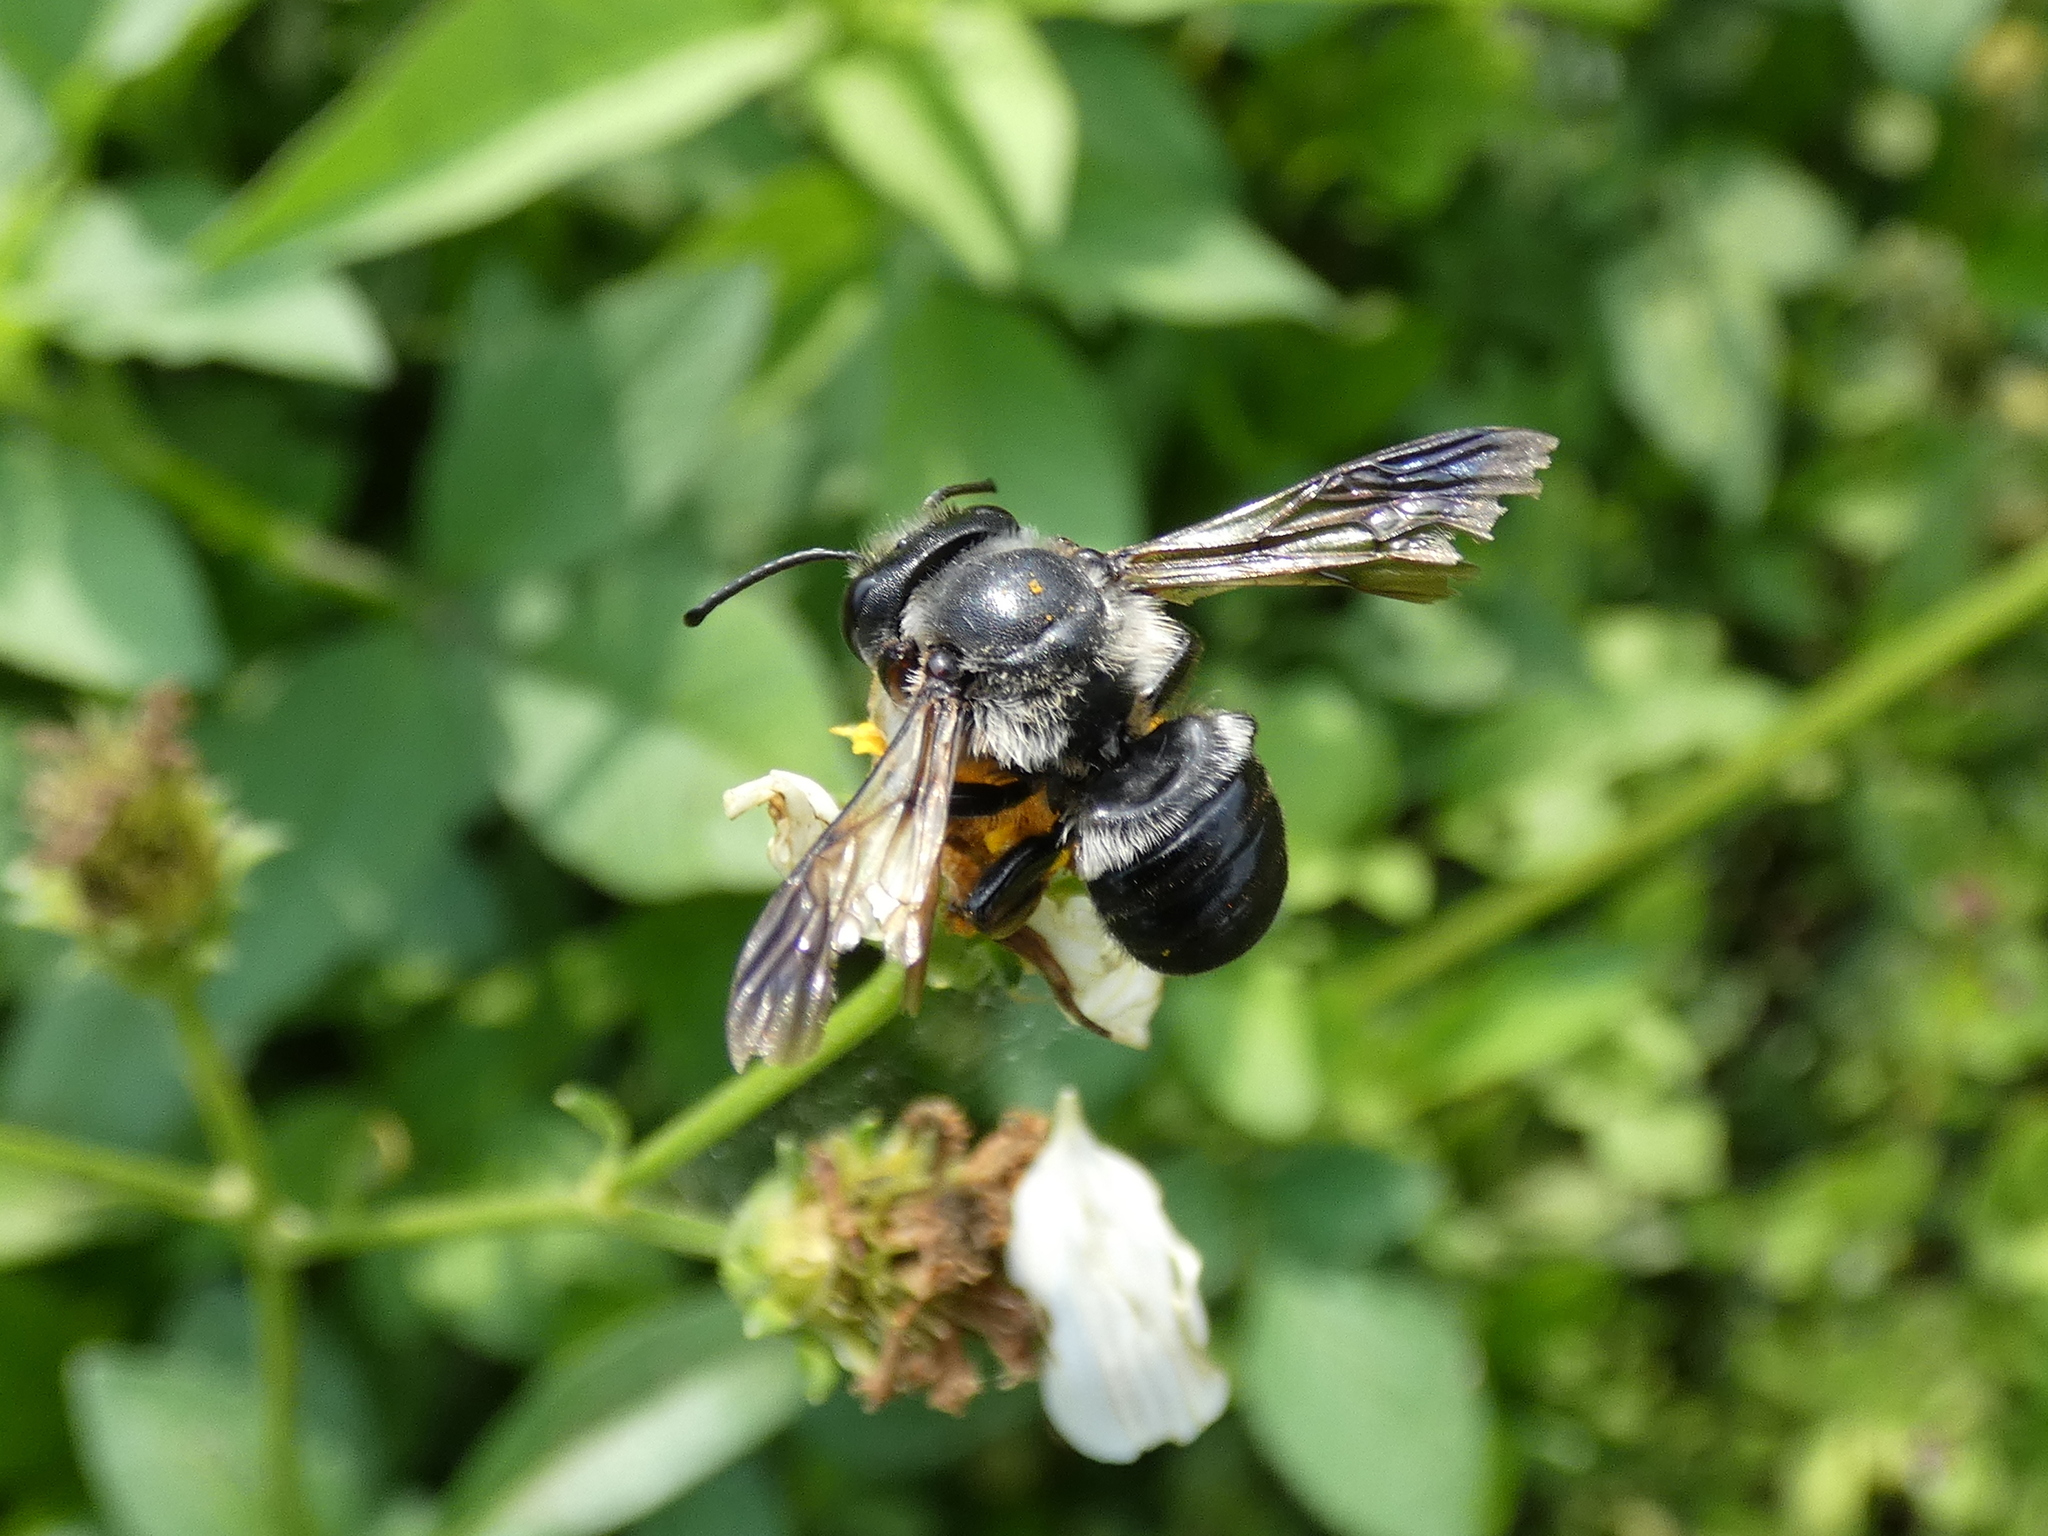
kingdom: Animalia
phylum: Arthropoda
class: Insecta
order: Hymenoptera
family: Megachilidae
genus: Megachile
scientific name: Megachile xylocopoides
